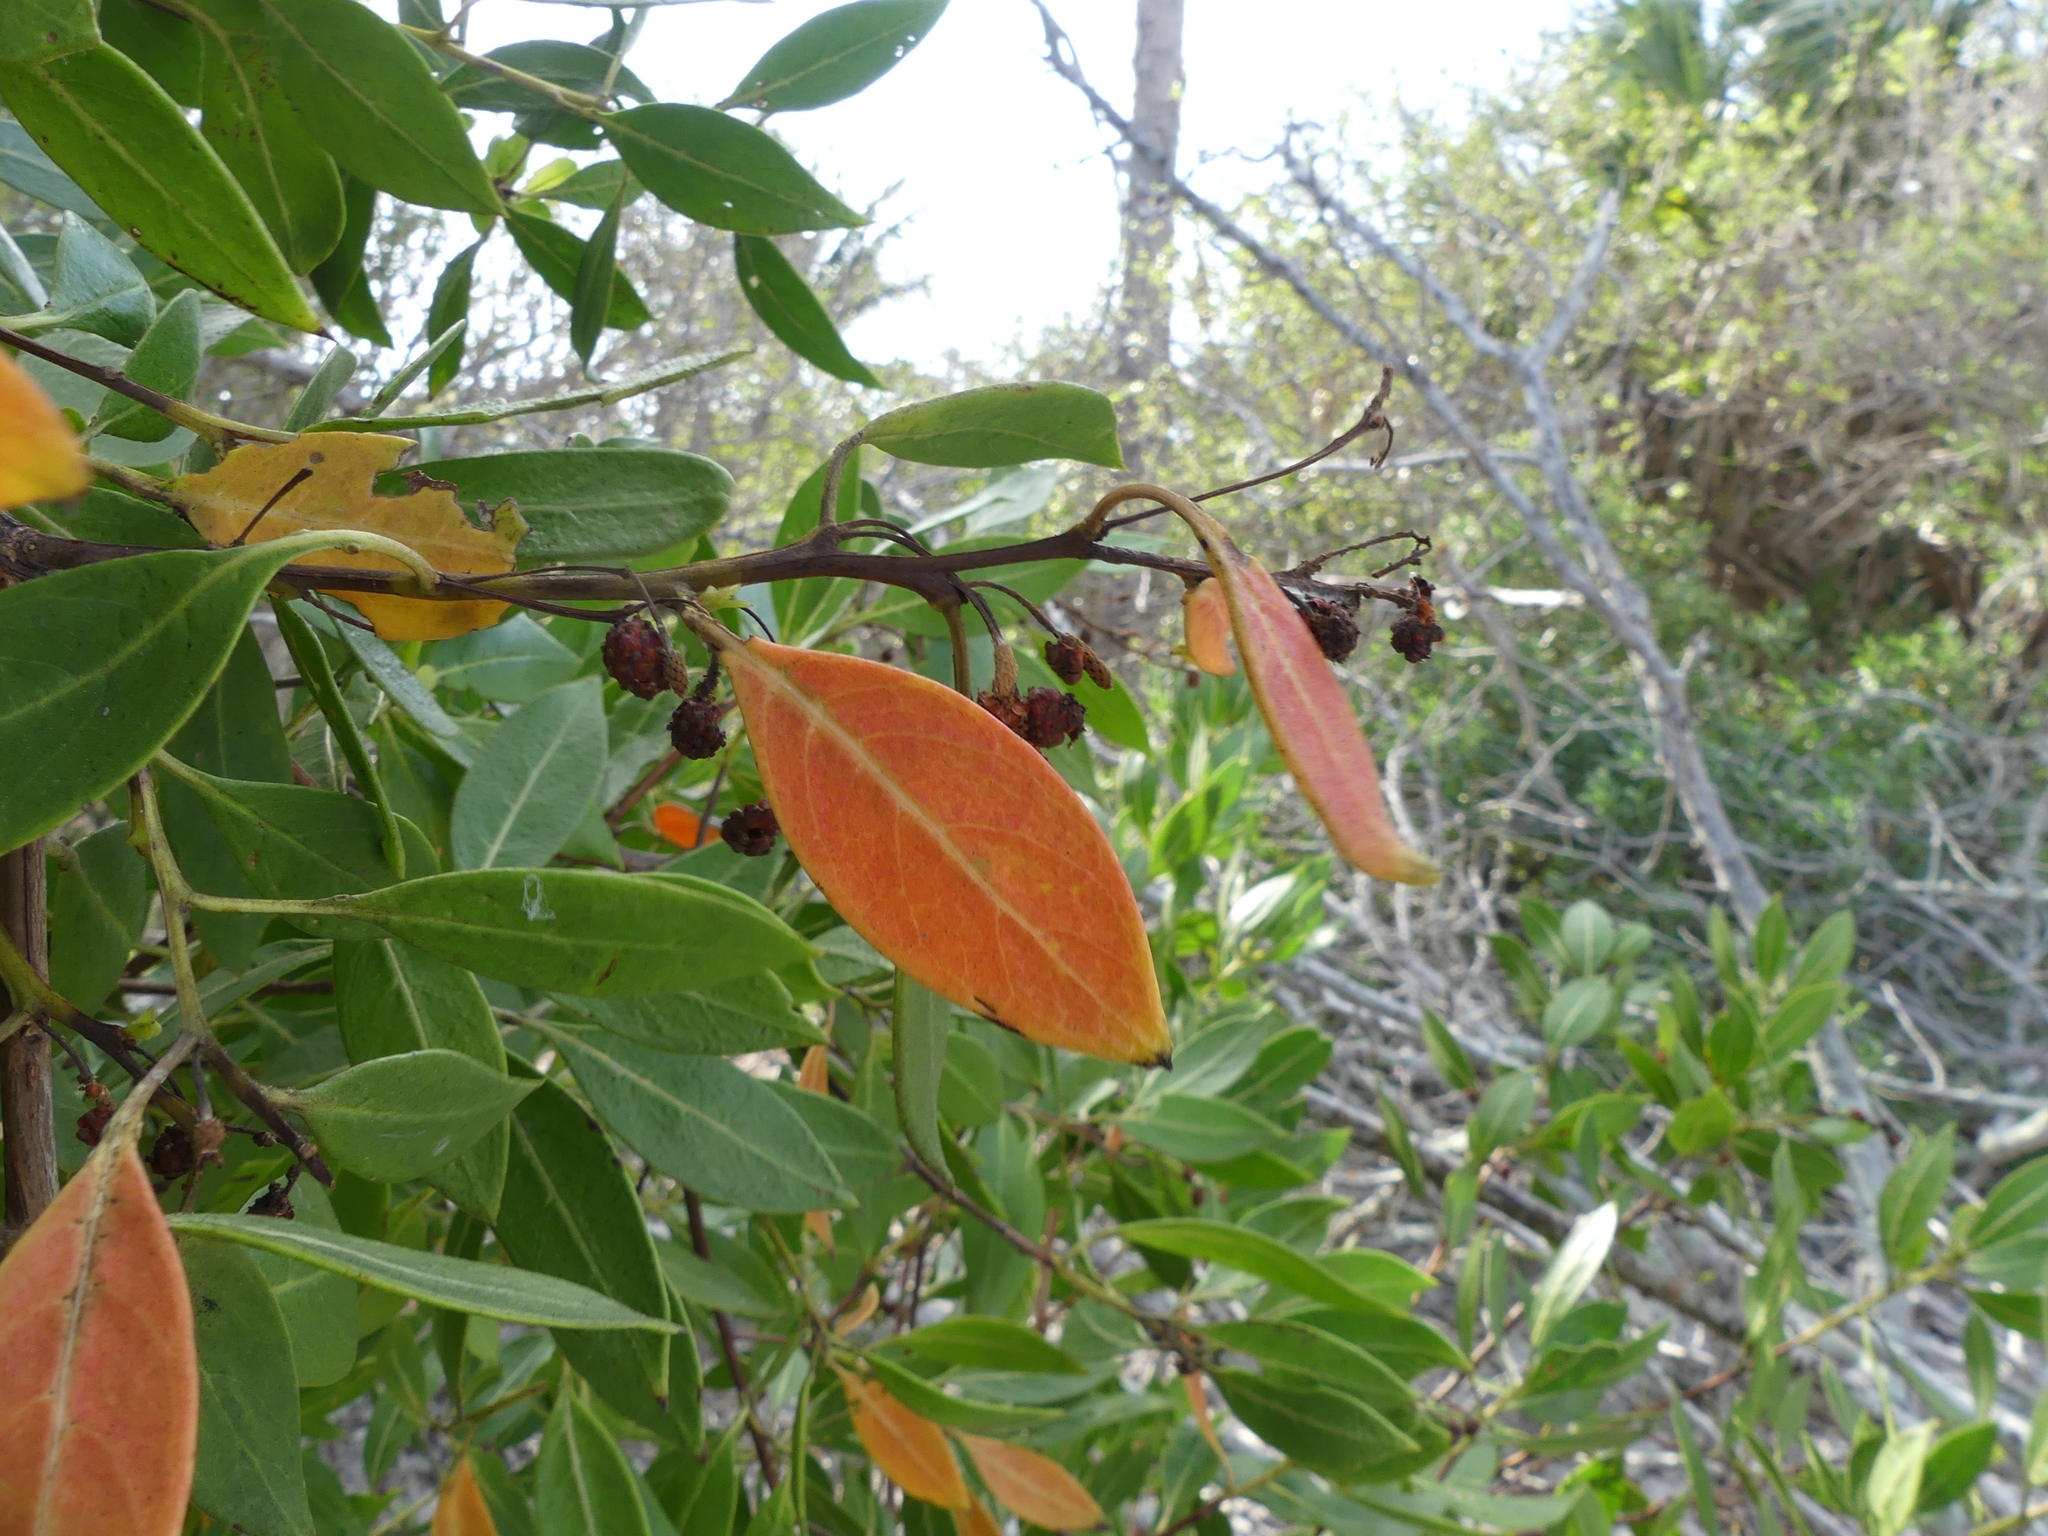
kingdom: Plantae
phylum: Tracheophyta
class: Magnoliopsida
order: Myrtales
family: Combretaceae
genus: Conocarpus
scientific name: Conocarpus erectus
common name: Button mangrove
